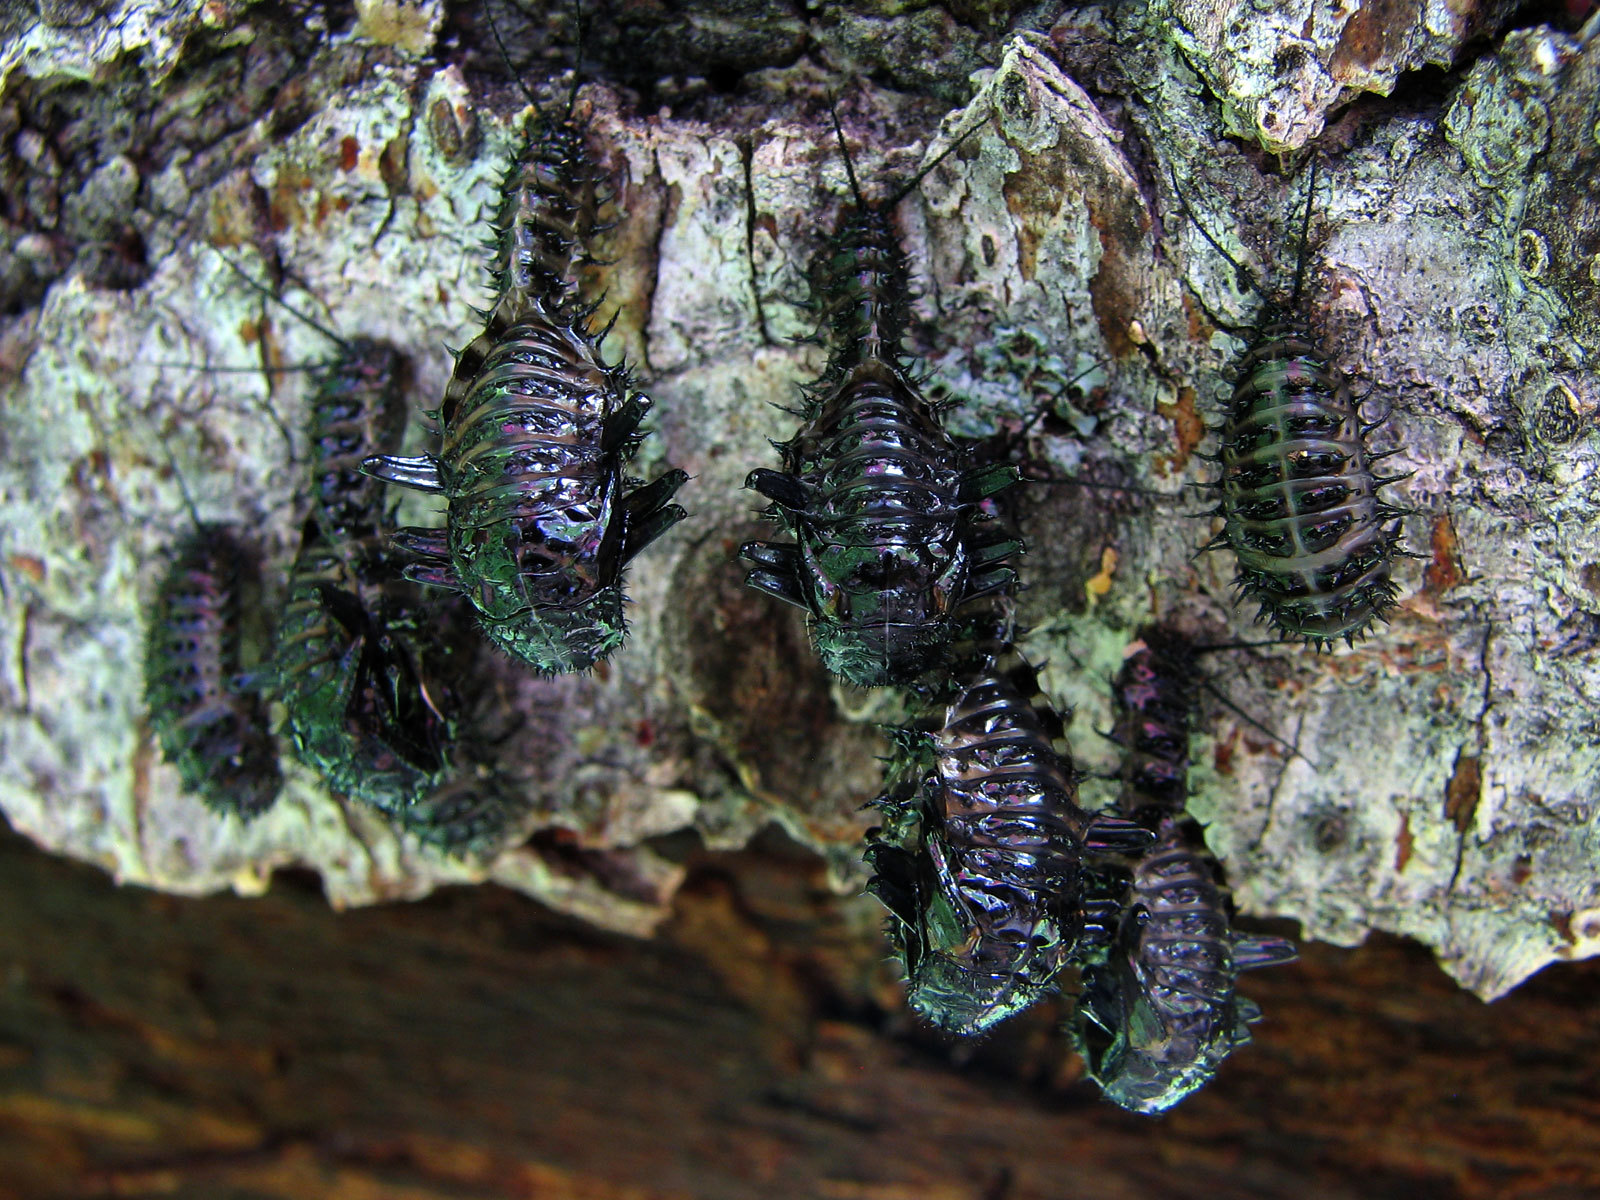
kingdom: Animalia
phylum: Arthropoda
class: Insecta
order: Coleoptera
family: Erotylidae
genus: Gibbifer
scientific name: Gibbifer californicus
